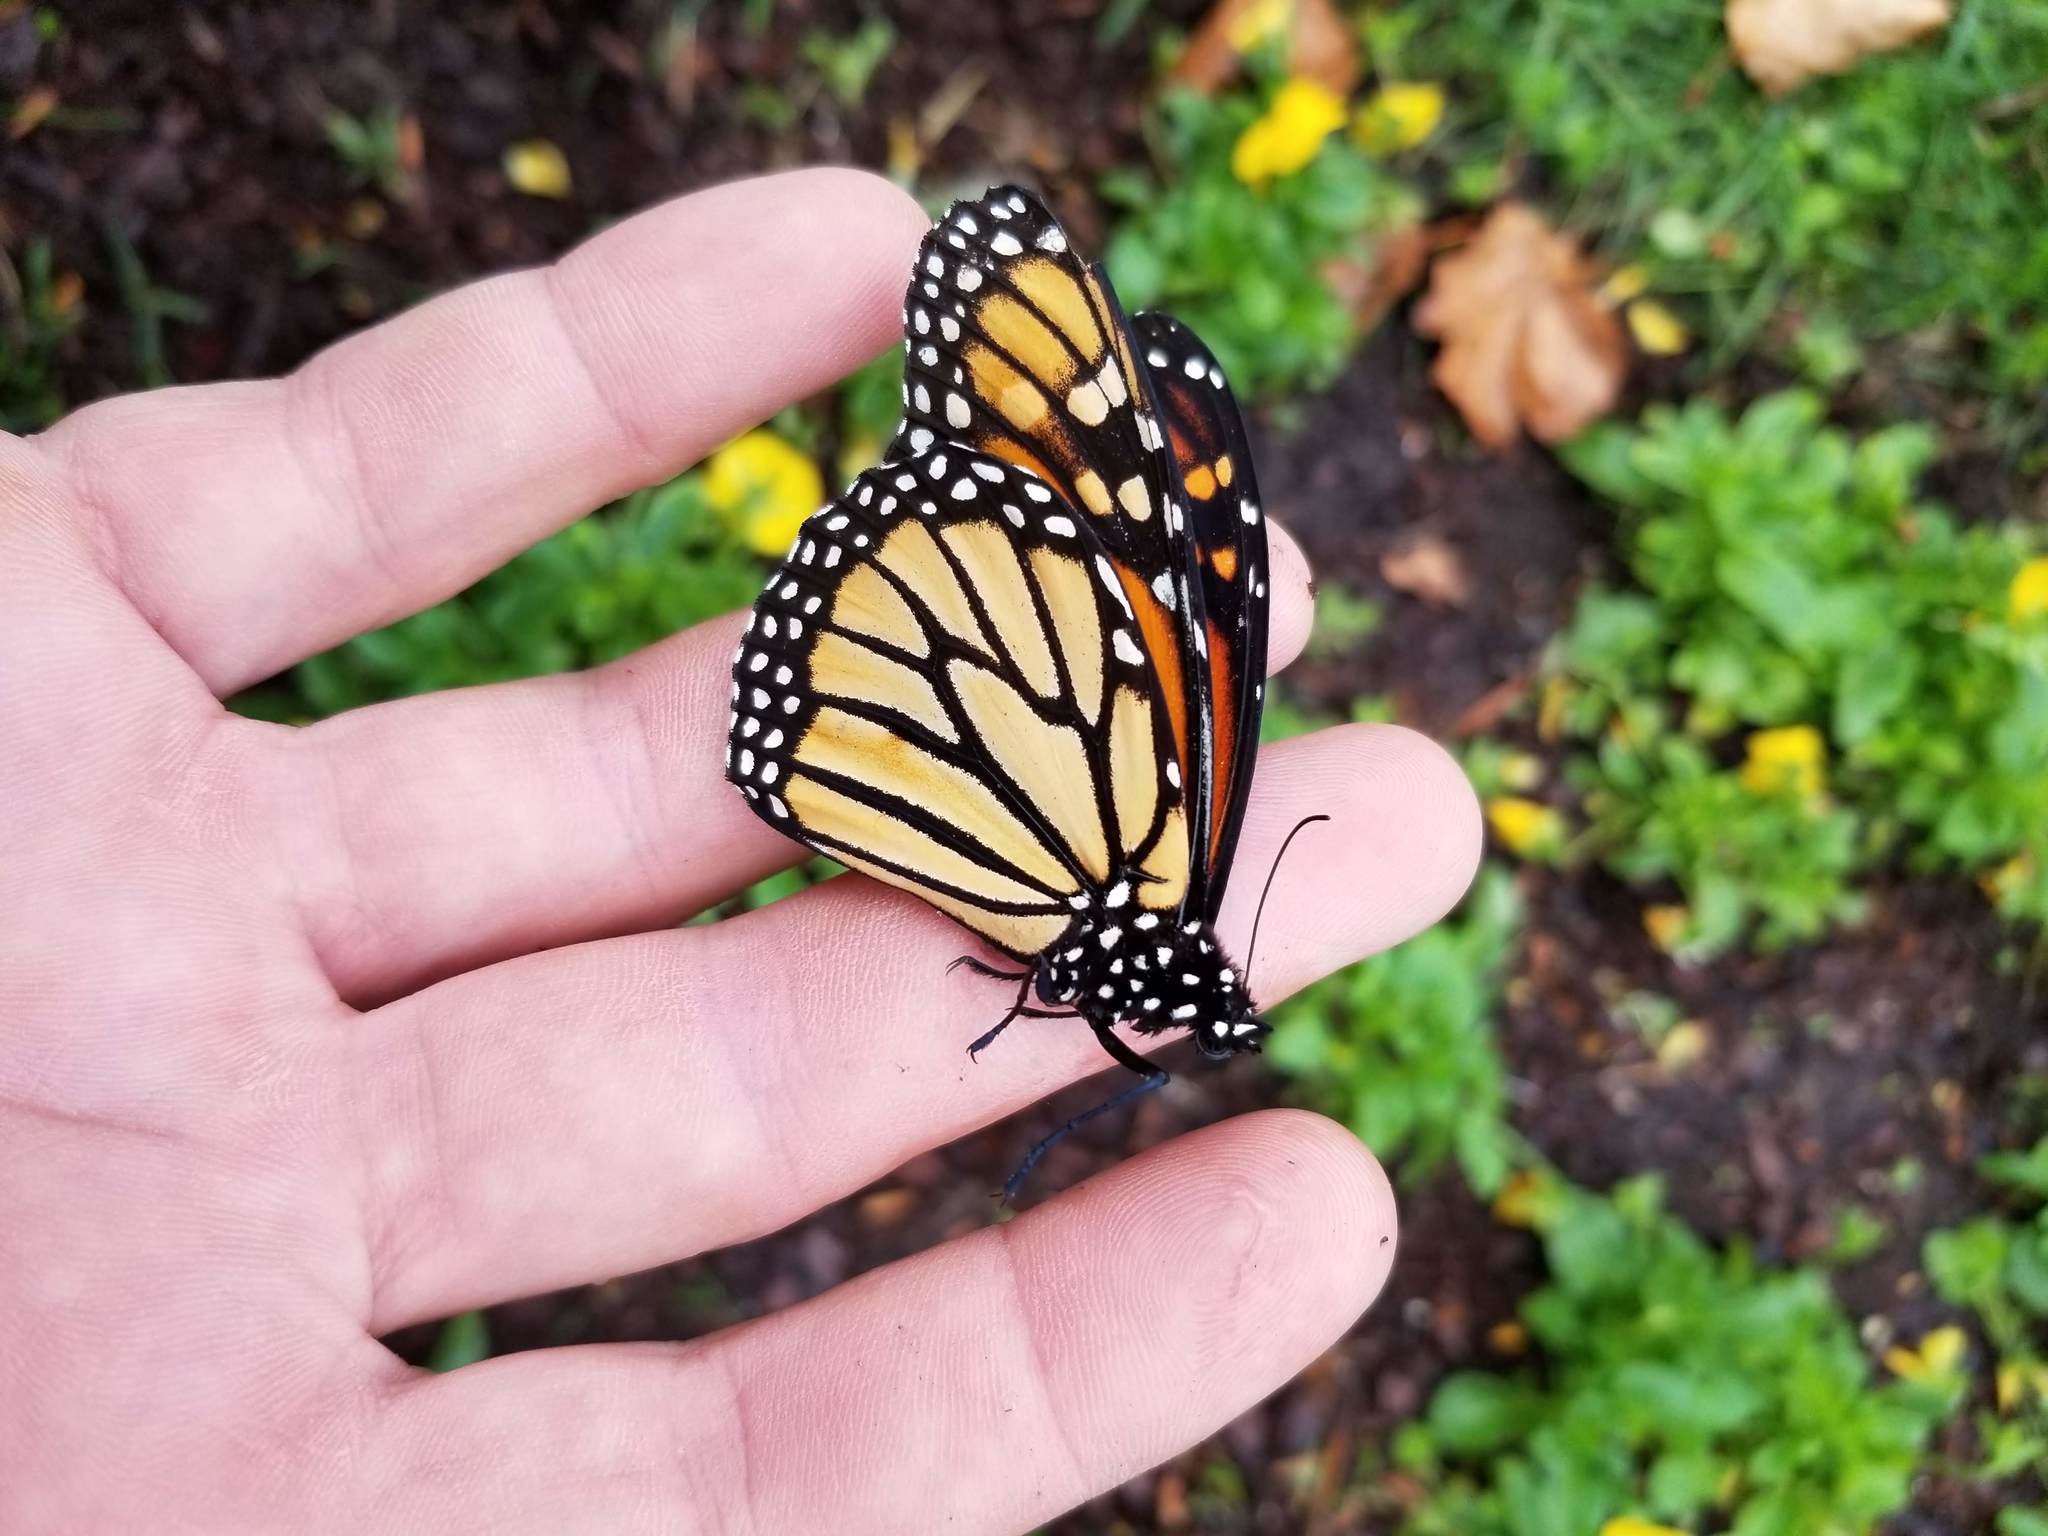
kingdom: Animalia
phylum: Arthropoda
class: Insecta
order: Lepidoptera
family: Nymphalidae
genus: Danaus
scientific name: Danaus plexippus
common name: Monarch
